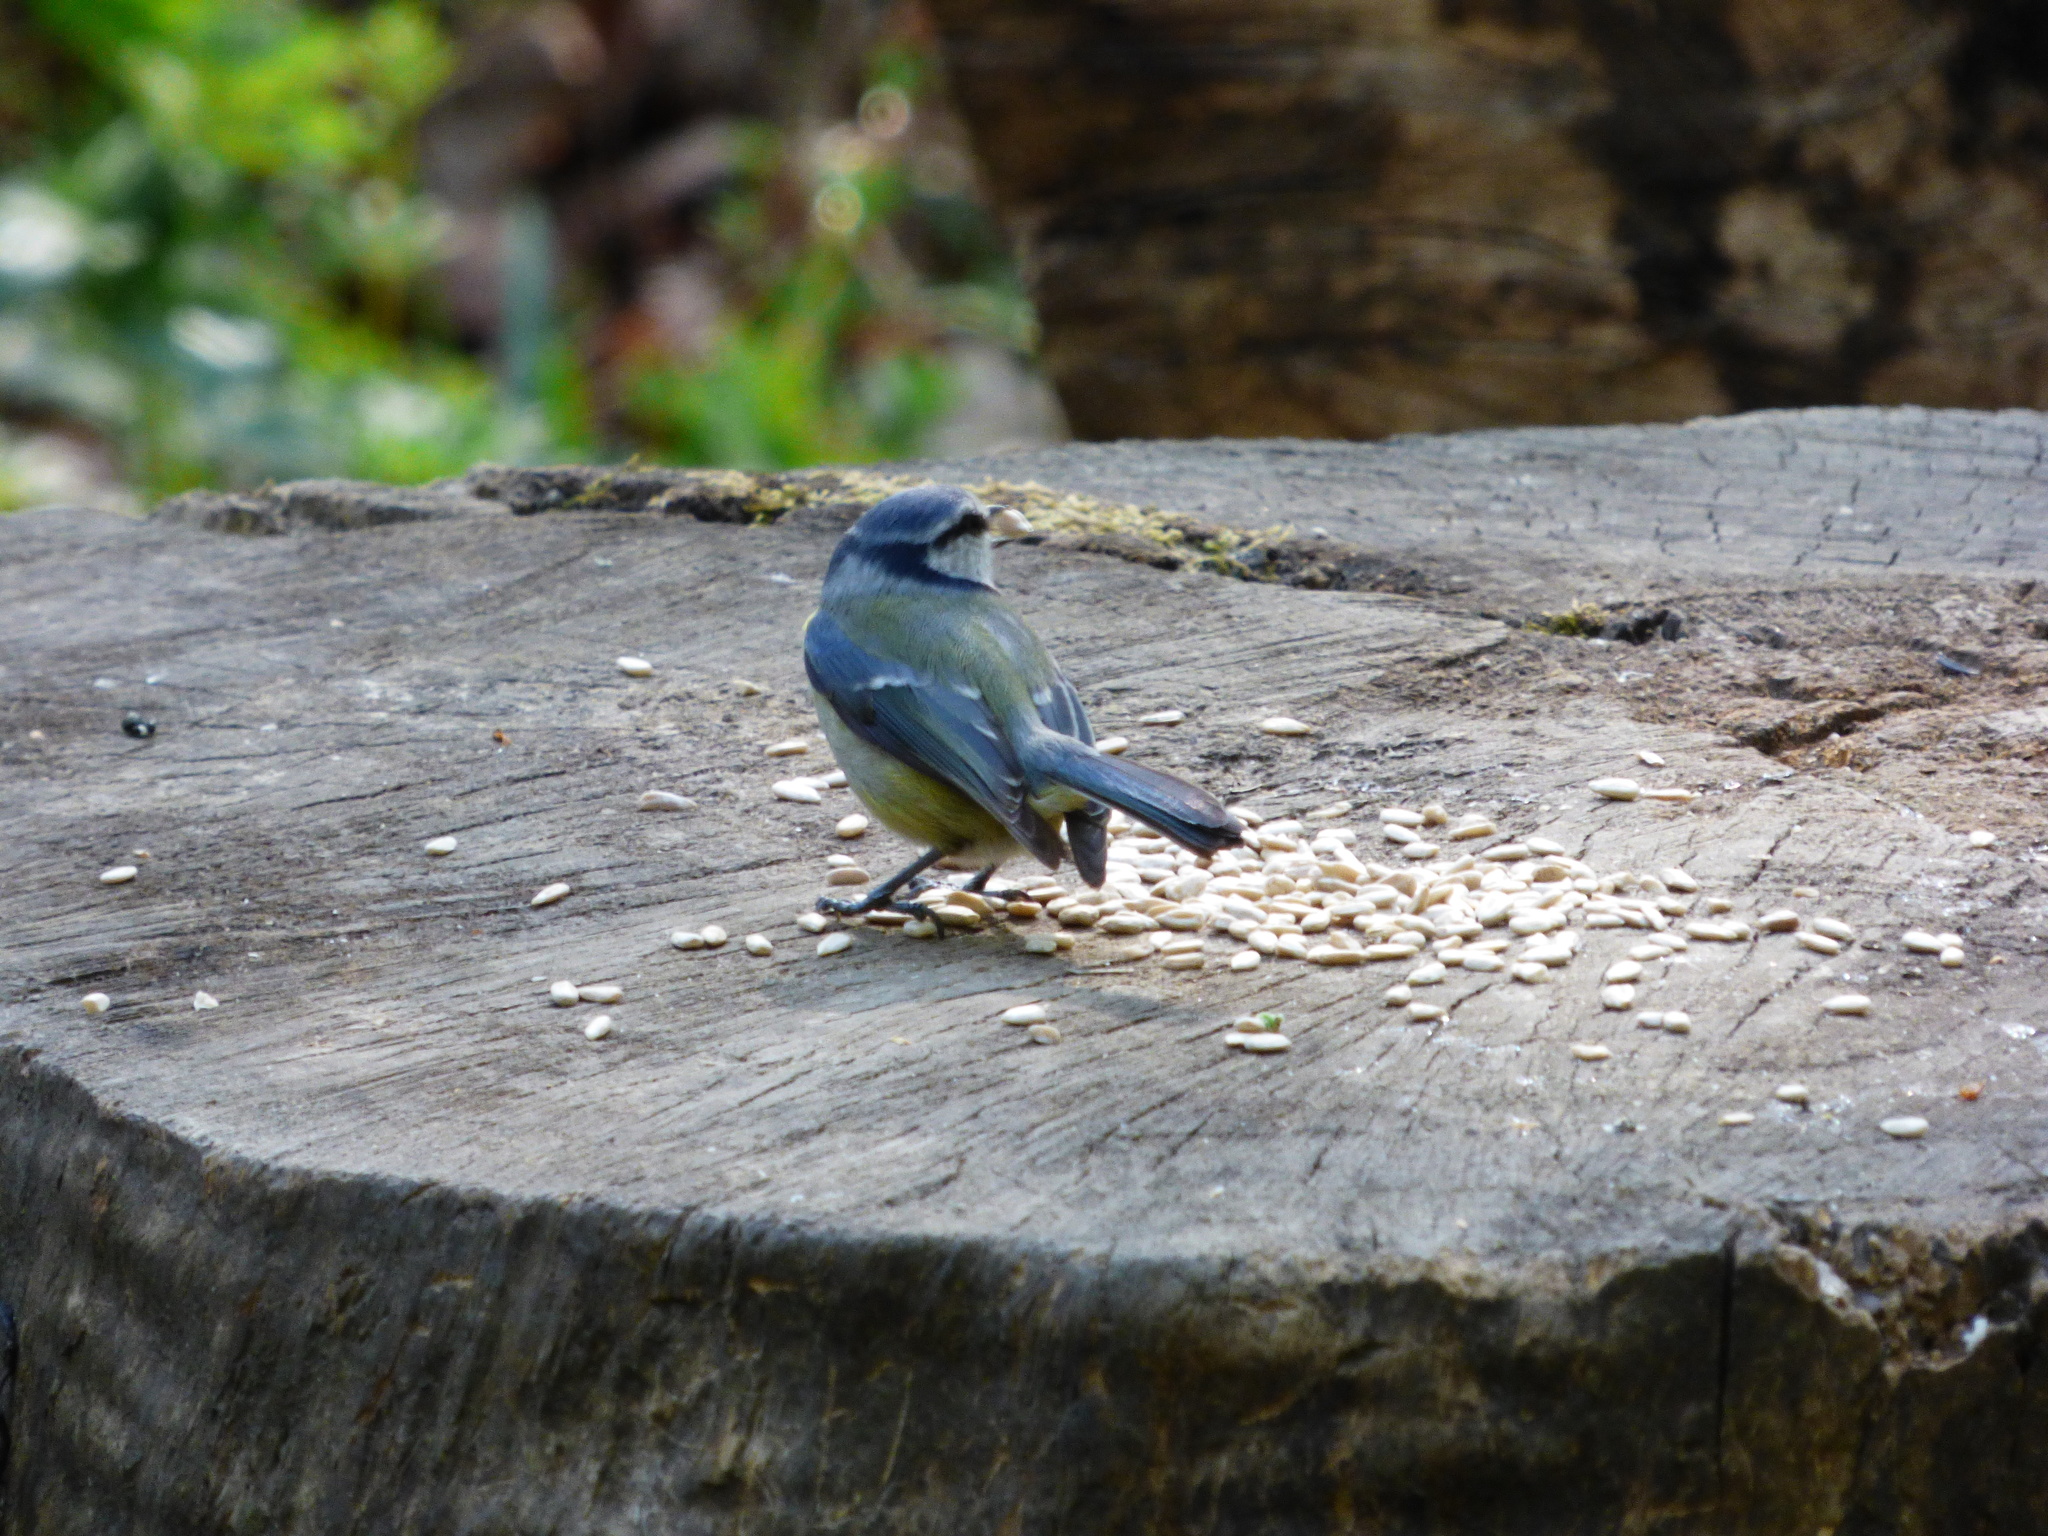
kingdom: Animalia
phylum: Chordata
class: Aves
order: Passeriformes
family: Paridae
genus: Cyanistes
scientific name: Cyanistes caeruleus
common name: Eurasian blue tit
